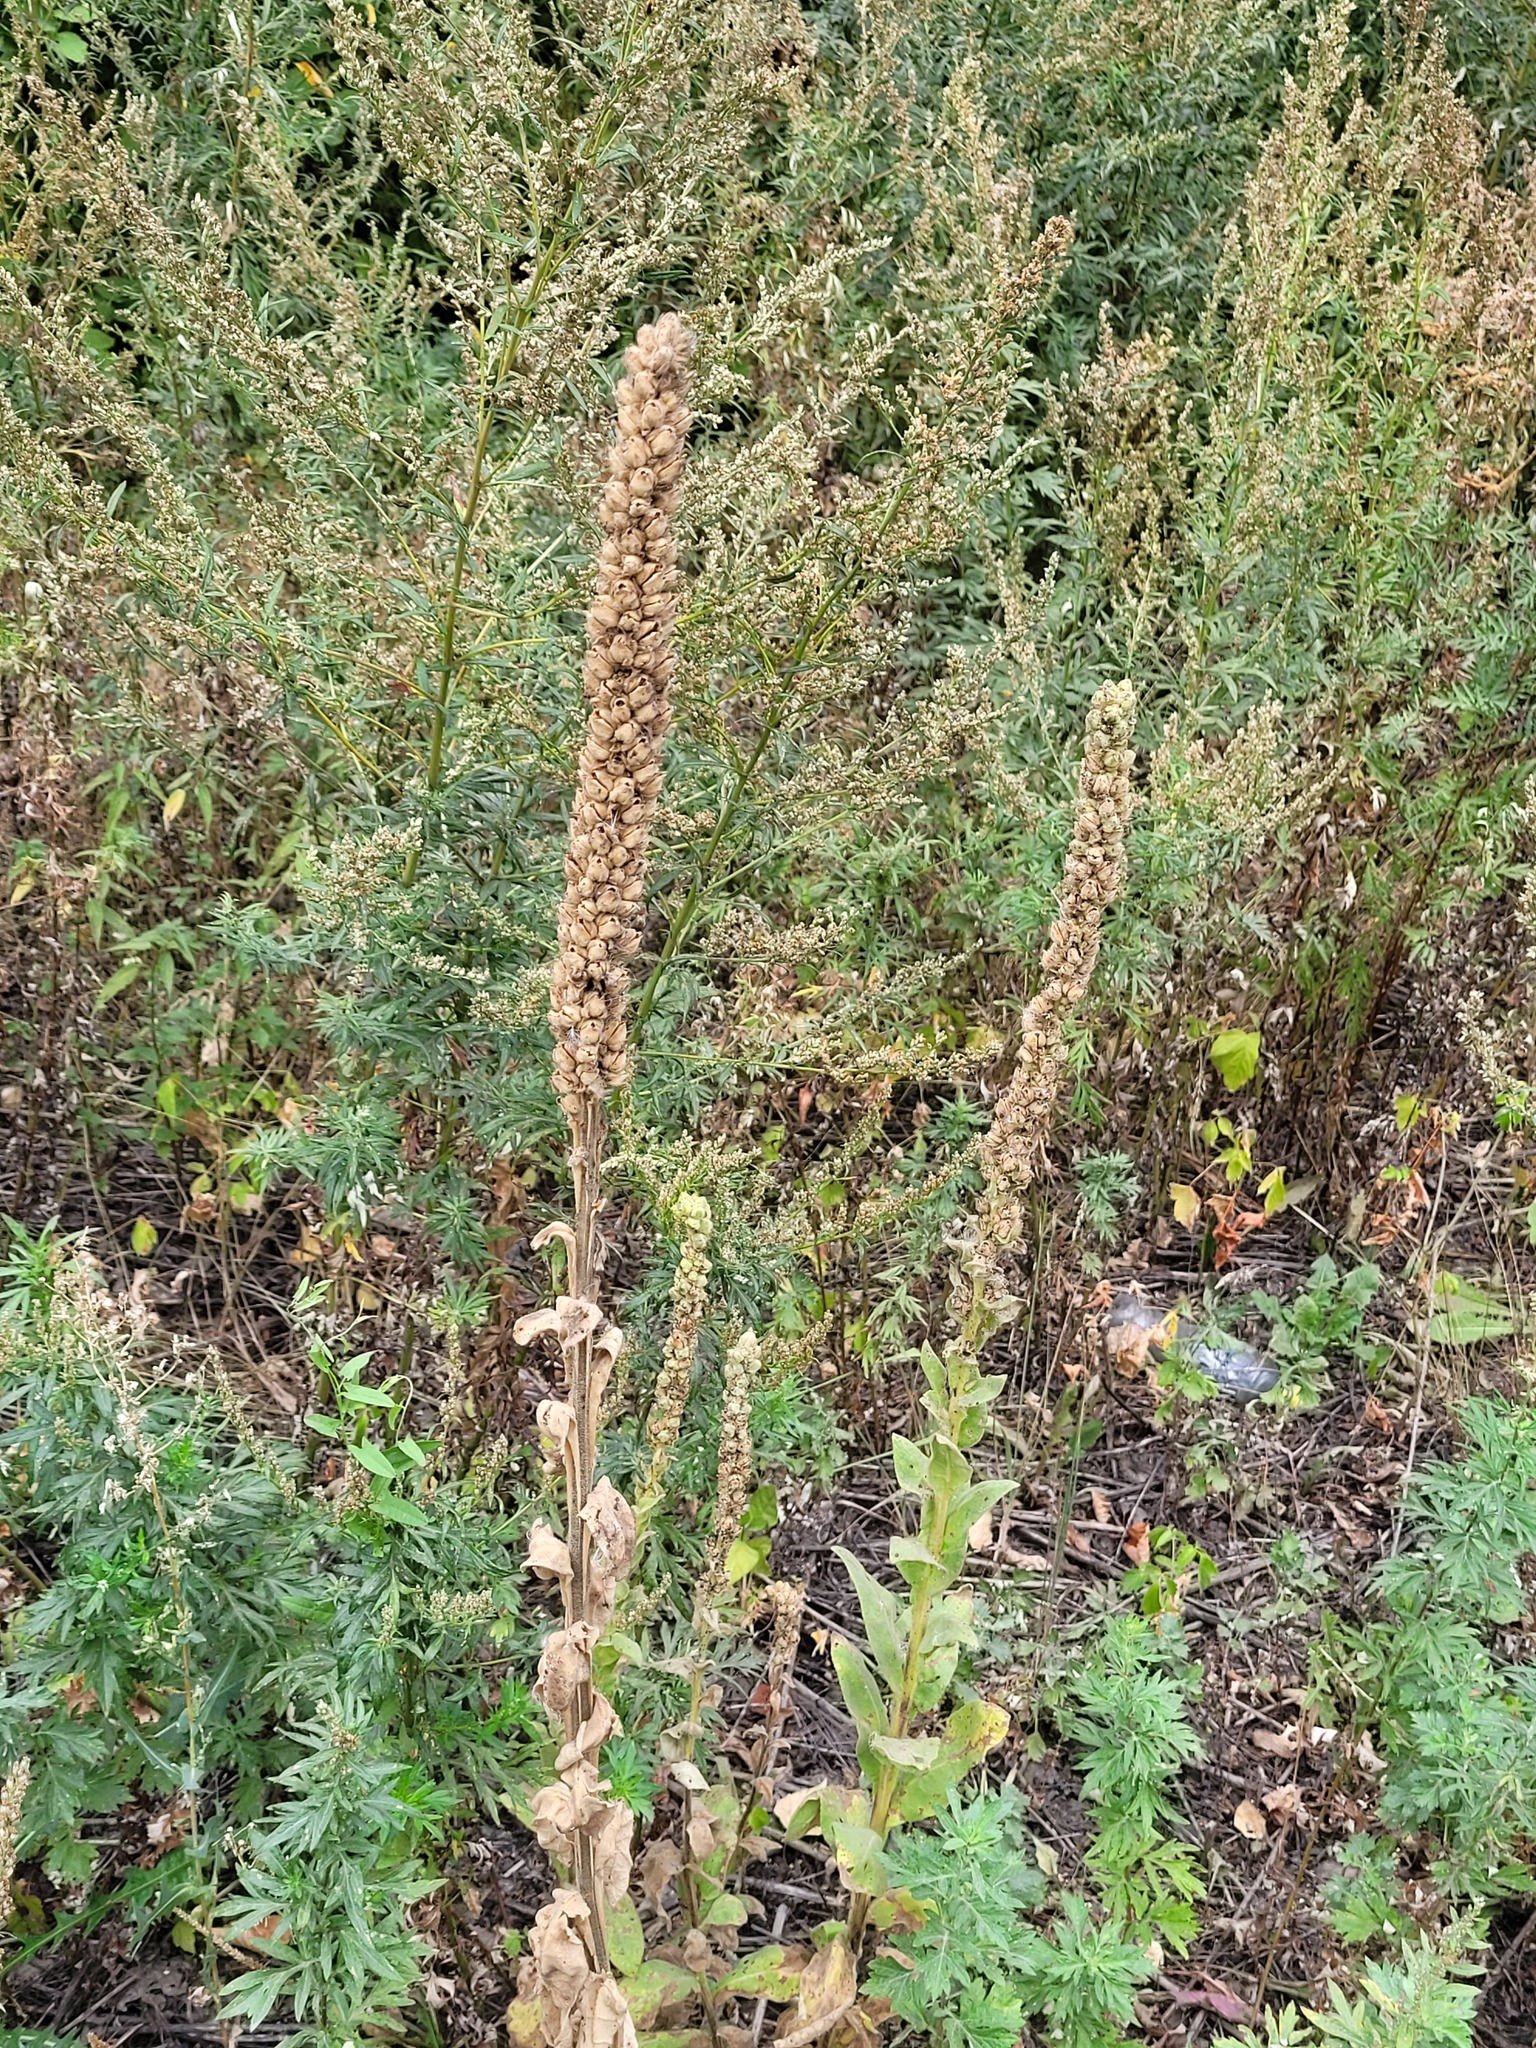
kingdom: Plantae
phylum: Tracheophyta
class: Magnoliopsida
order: Lamiales
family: Scrophulariaceae
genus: Verbascum
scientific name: Verbascum thapsus
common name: Common mullein
